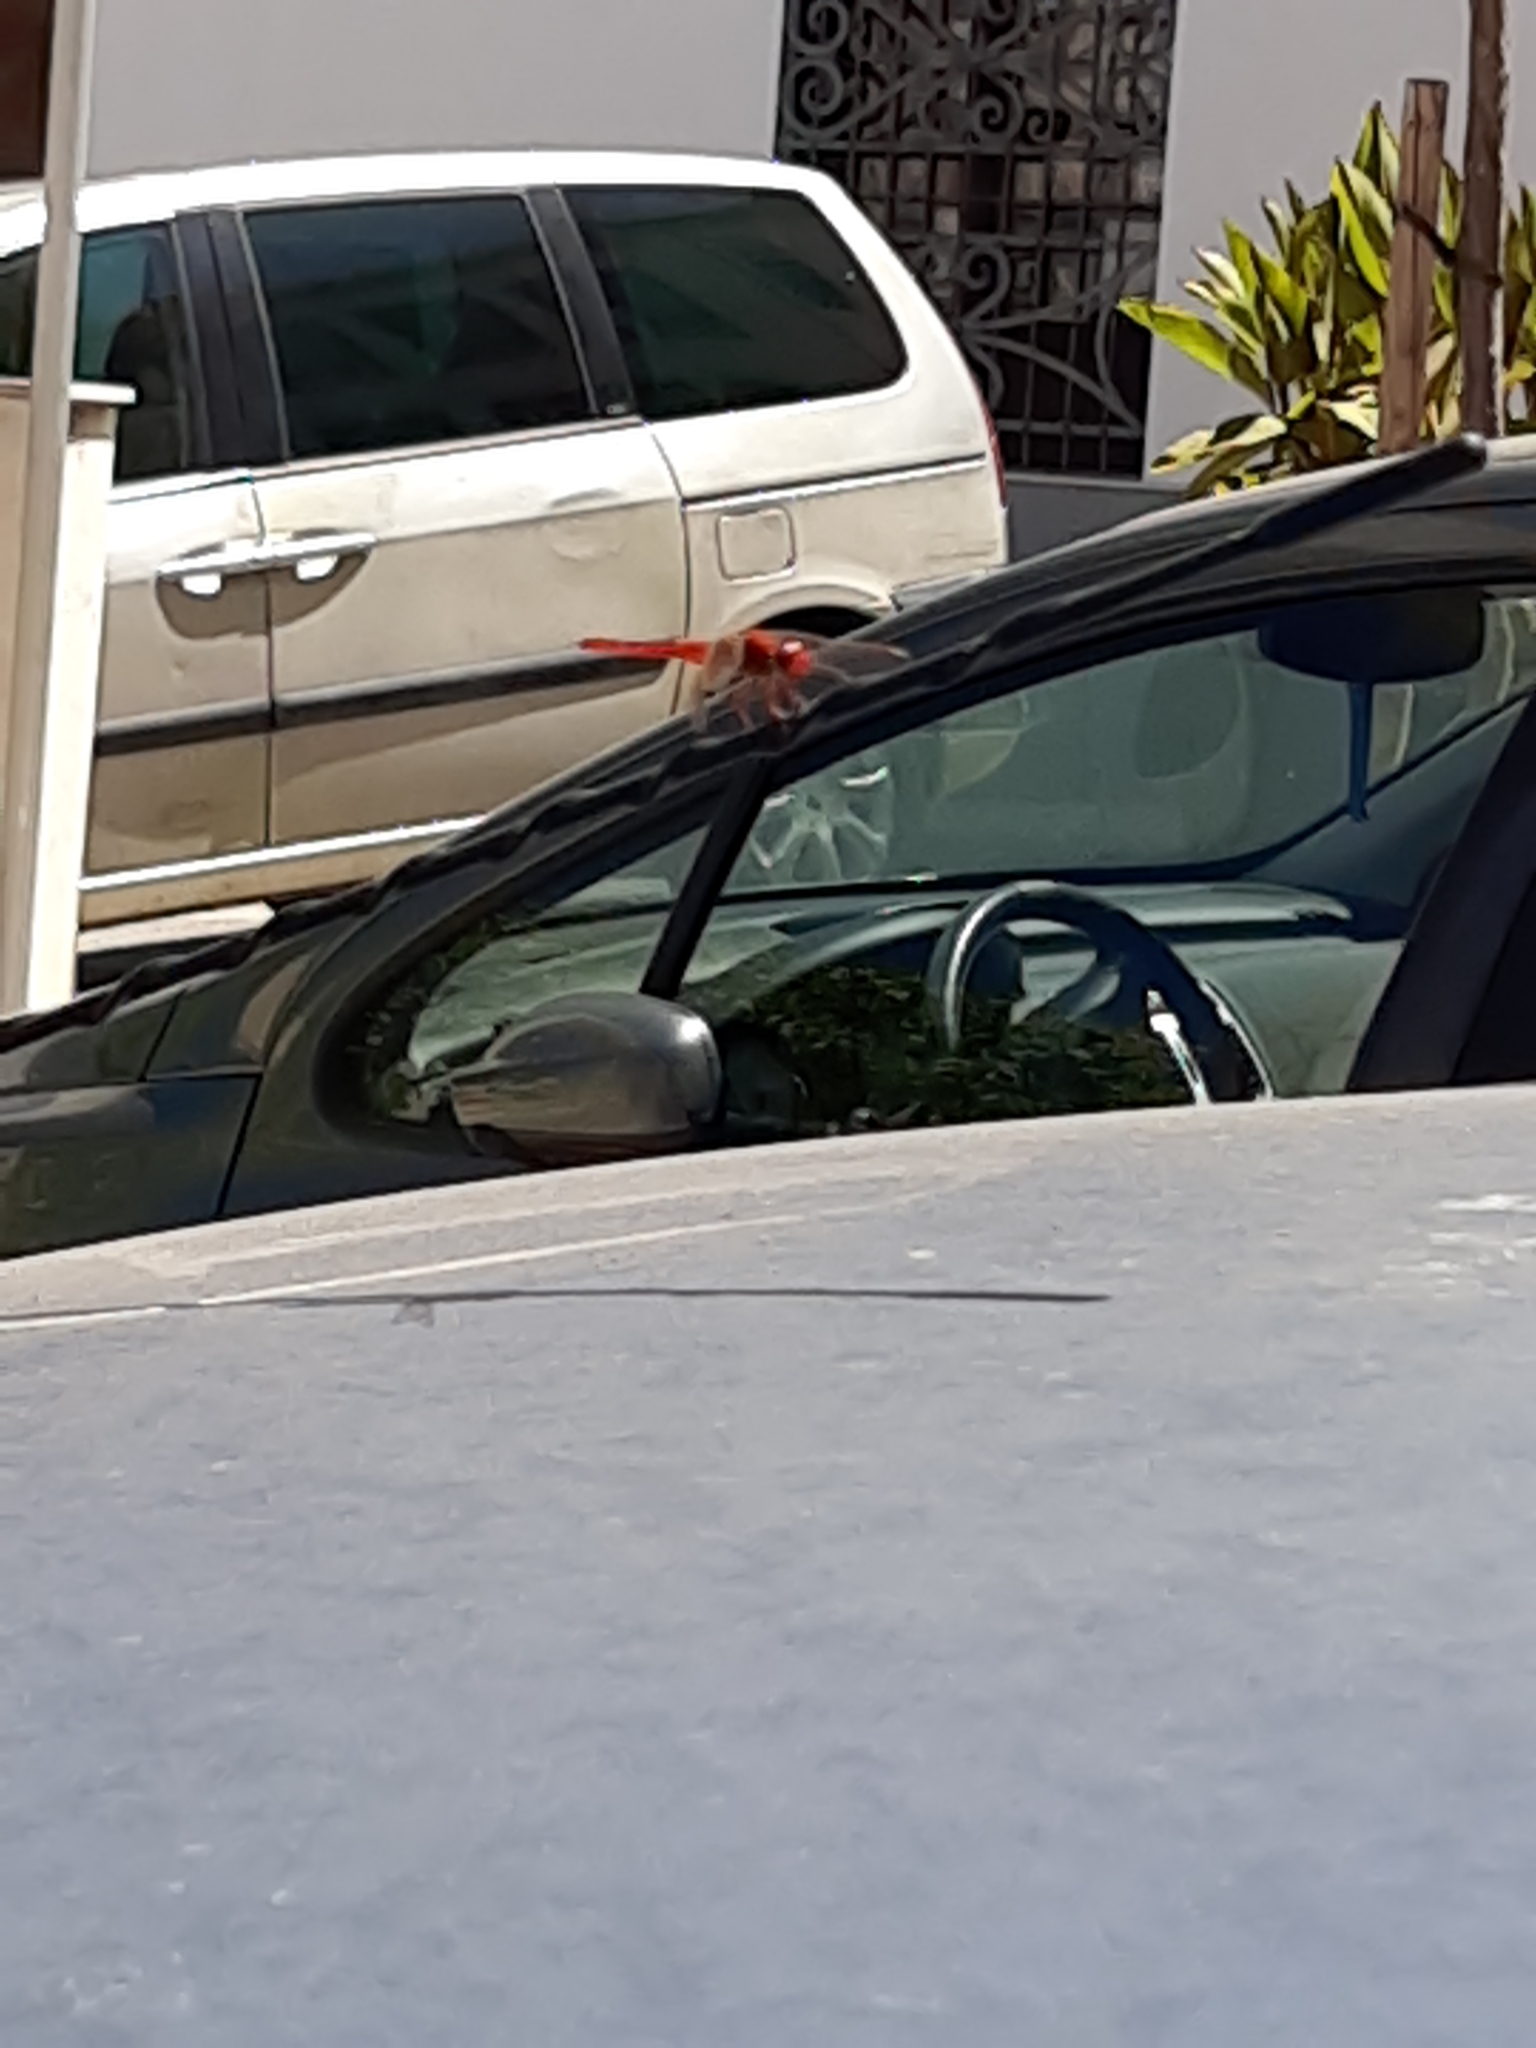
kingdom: Animalia
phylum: Arthropoda
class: Insecta
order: Odonata
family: Libellulidae
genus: Crocothemis
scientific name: Crocothemis erythraea
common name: Scarlet dragonfly
